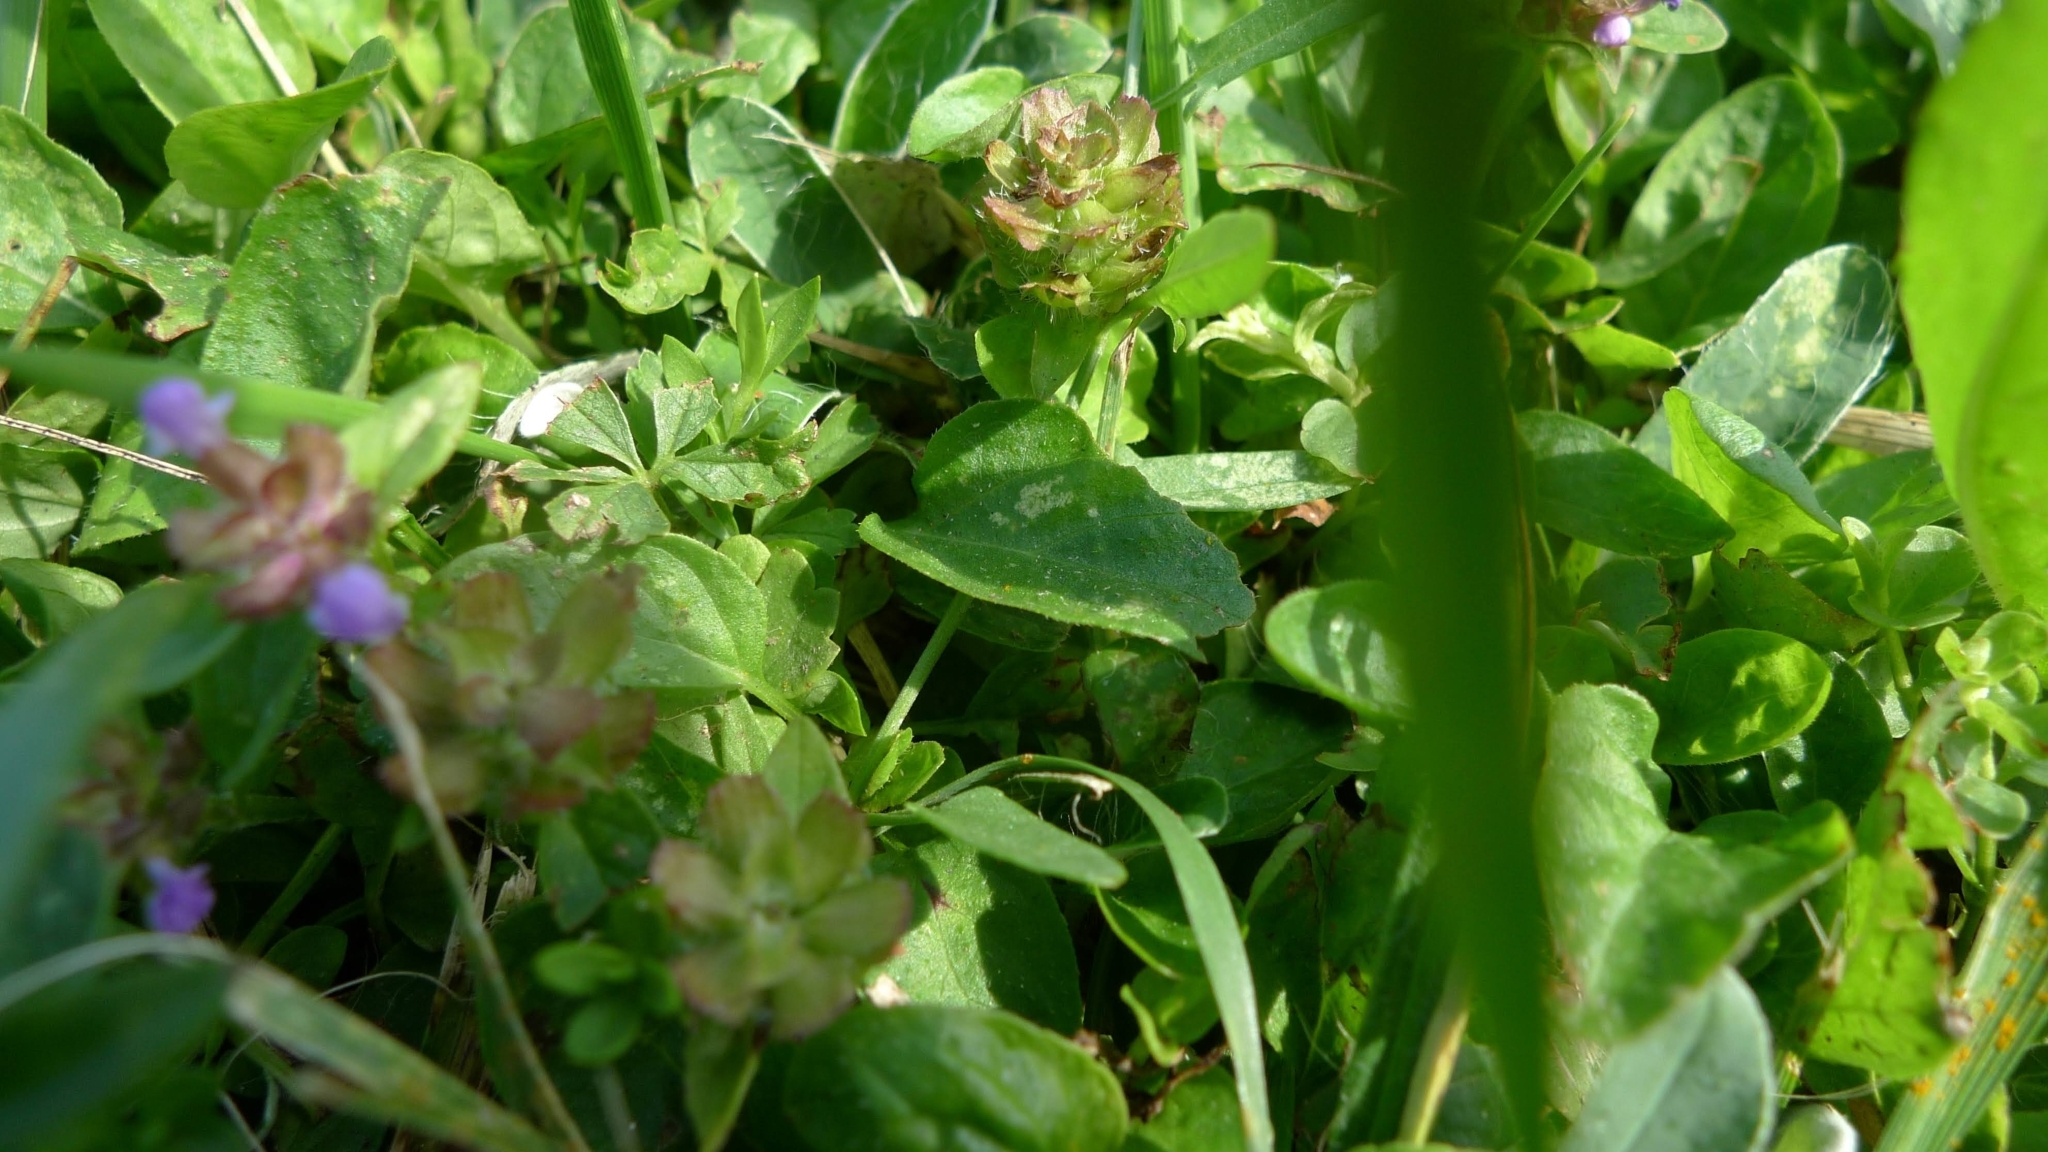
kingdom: Plantae
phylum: Tracheophyta
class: Magnoliopsida
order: Lamiales
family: Lamiaceae
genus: Prunella
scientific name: Prunella vulgaris
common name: Heal-all
